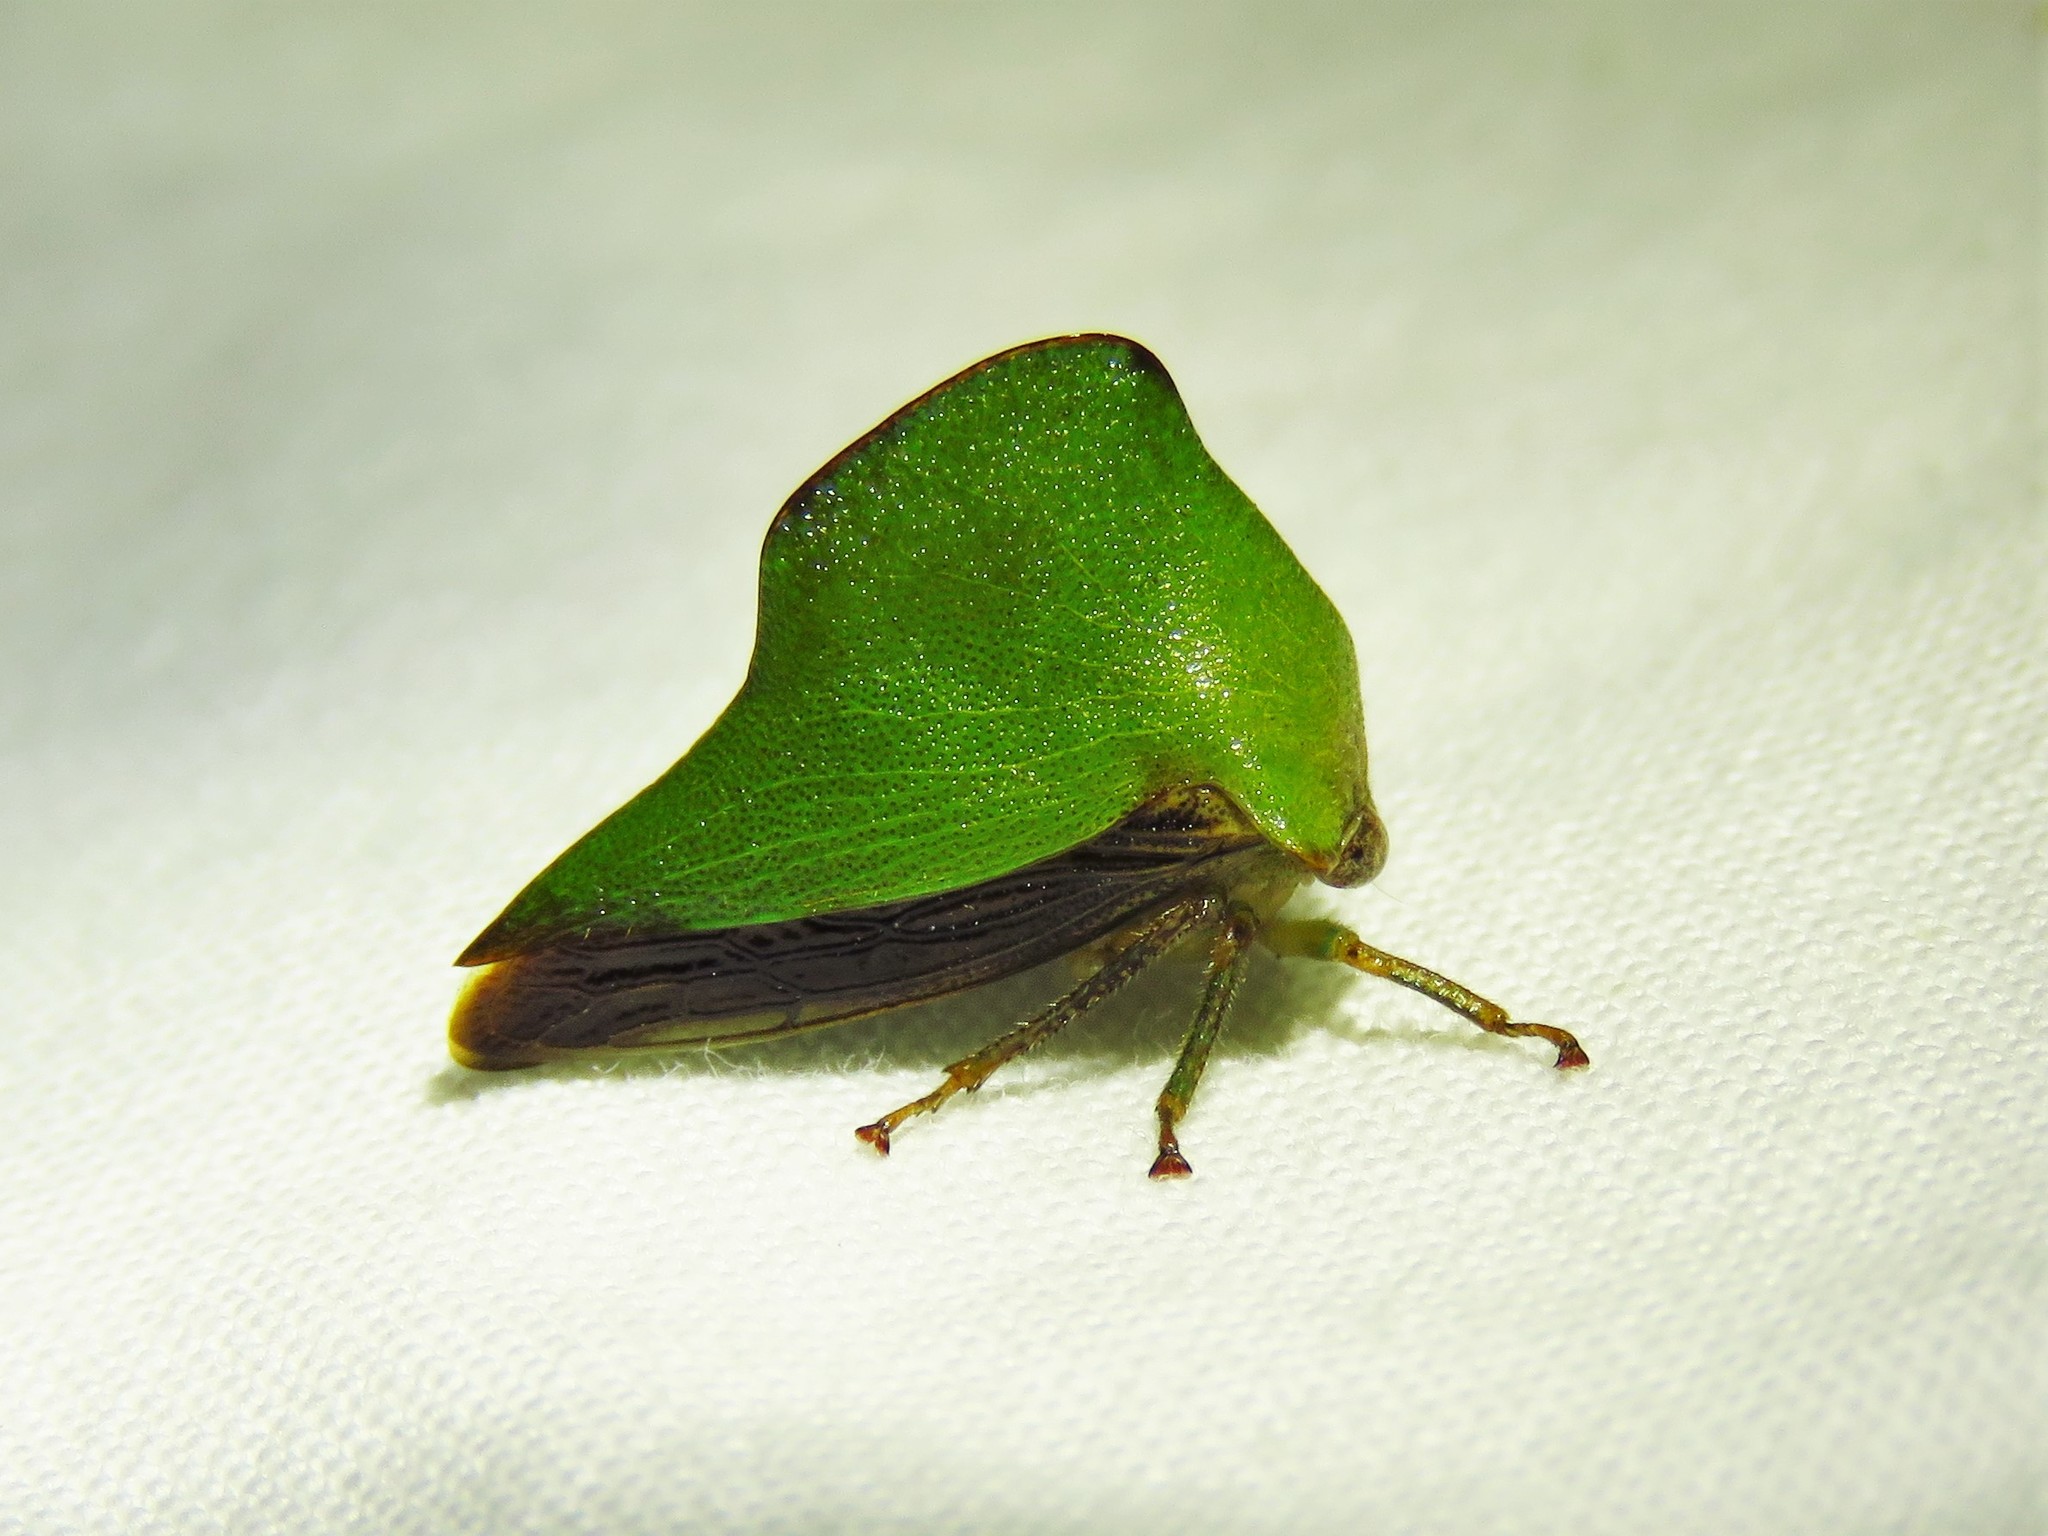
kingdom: Animalia
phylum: Arthropoda
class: Insecta
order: Hemiptera
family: Membracidae
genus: Helonica
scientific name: Helonica excelsa
